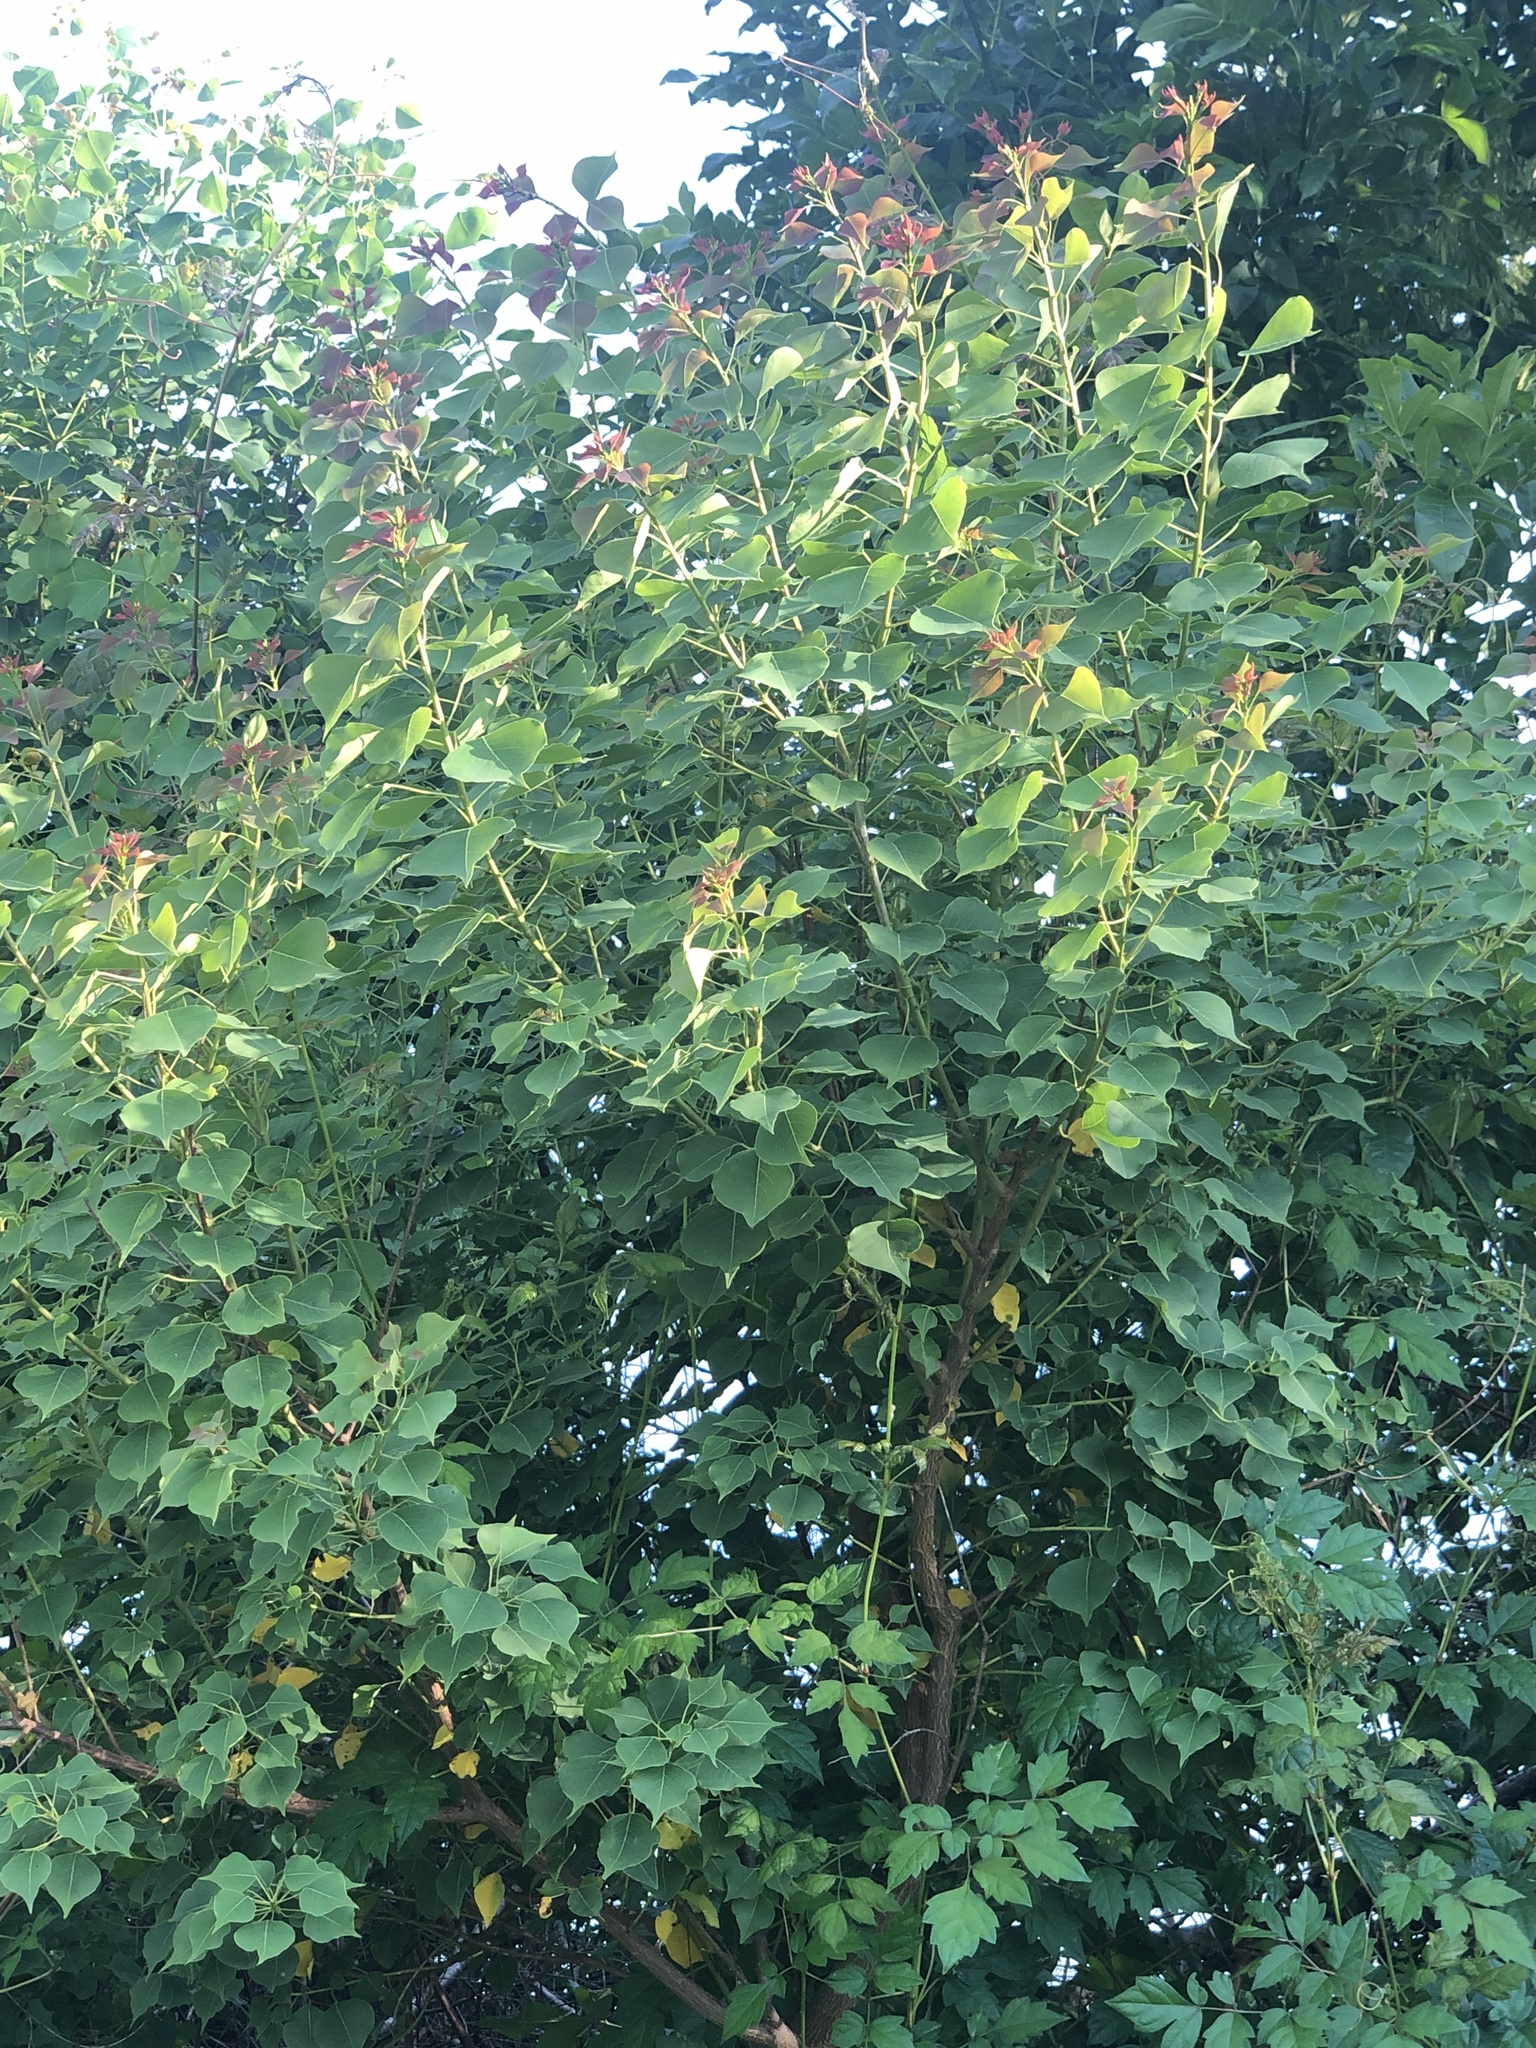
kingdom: Plantae
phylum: Tracheophyta
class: Magnoliopsida
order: Malpighiales
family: Euphorbiaceae
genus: Triadica
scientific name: Triadica sebifera
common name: Chinese tallow
